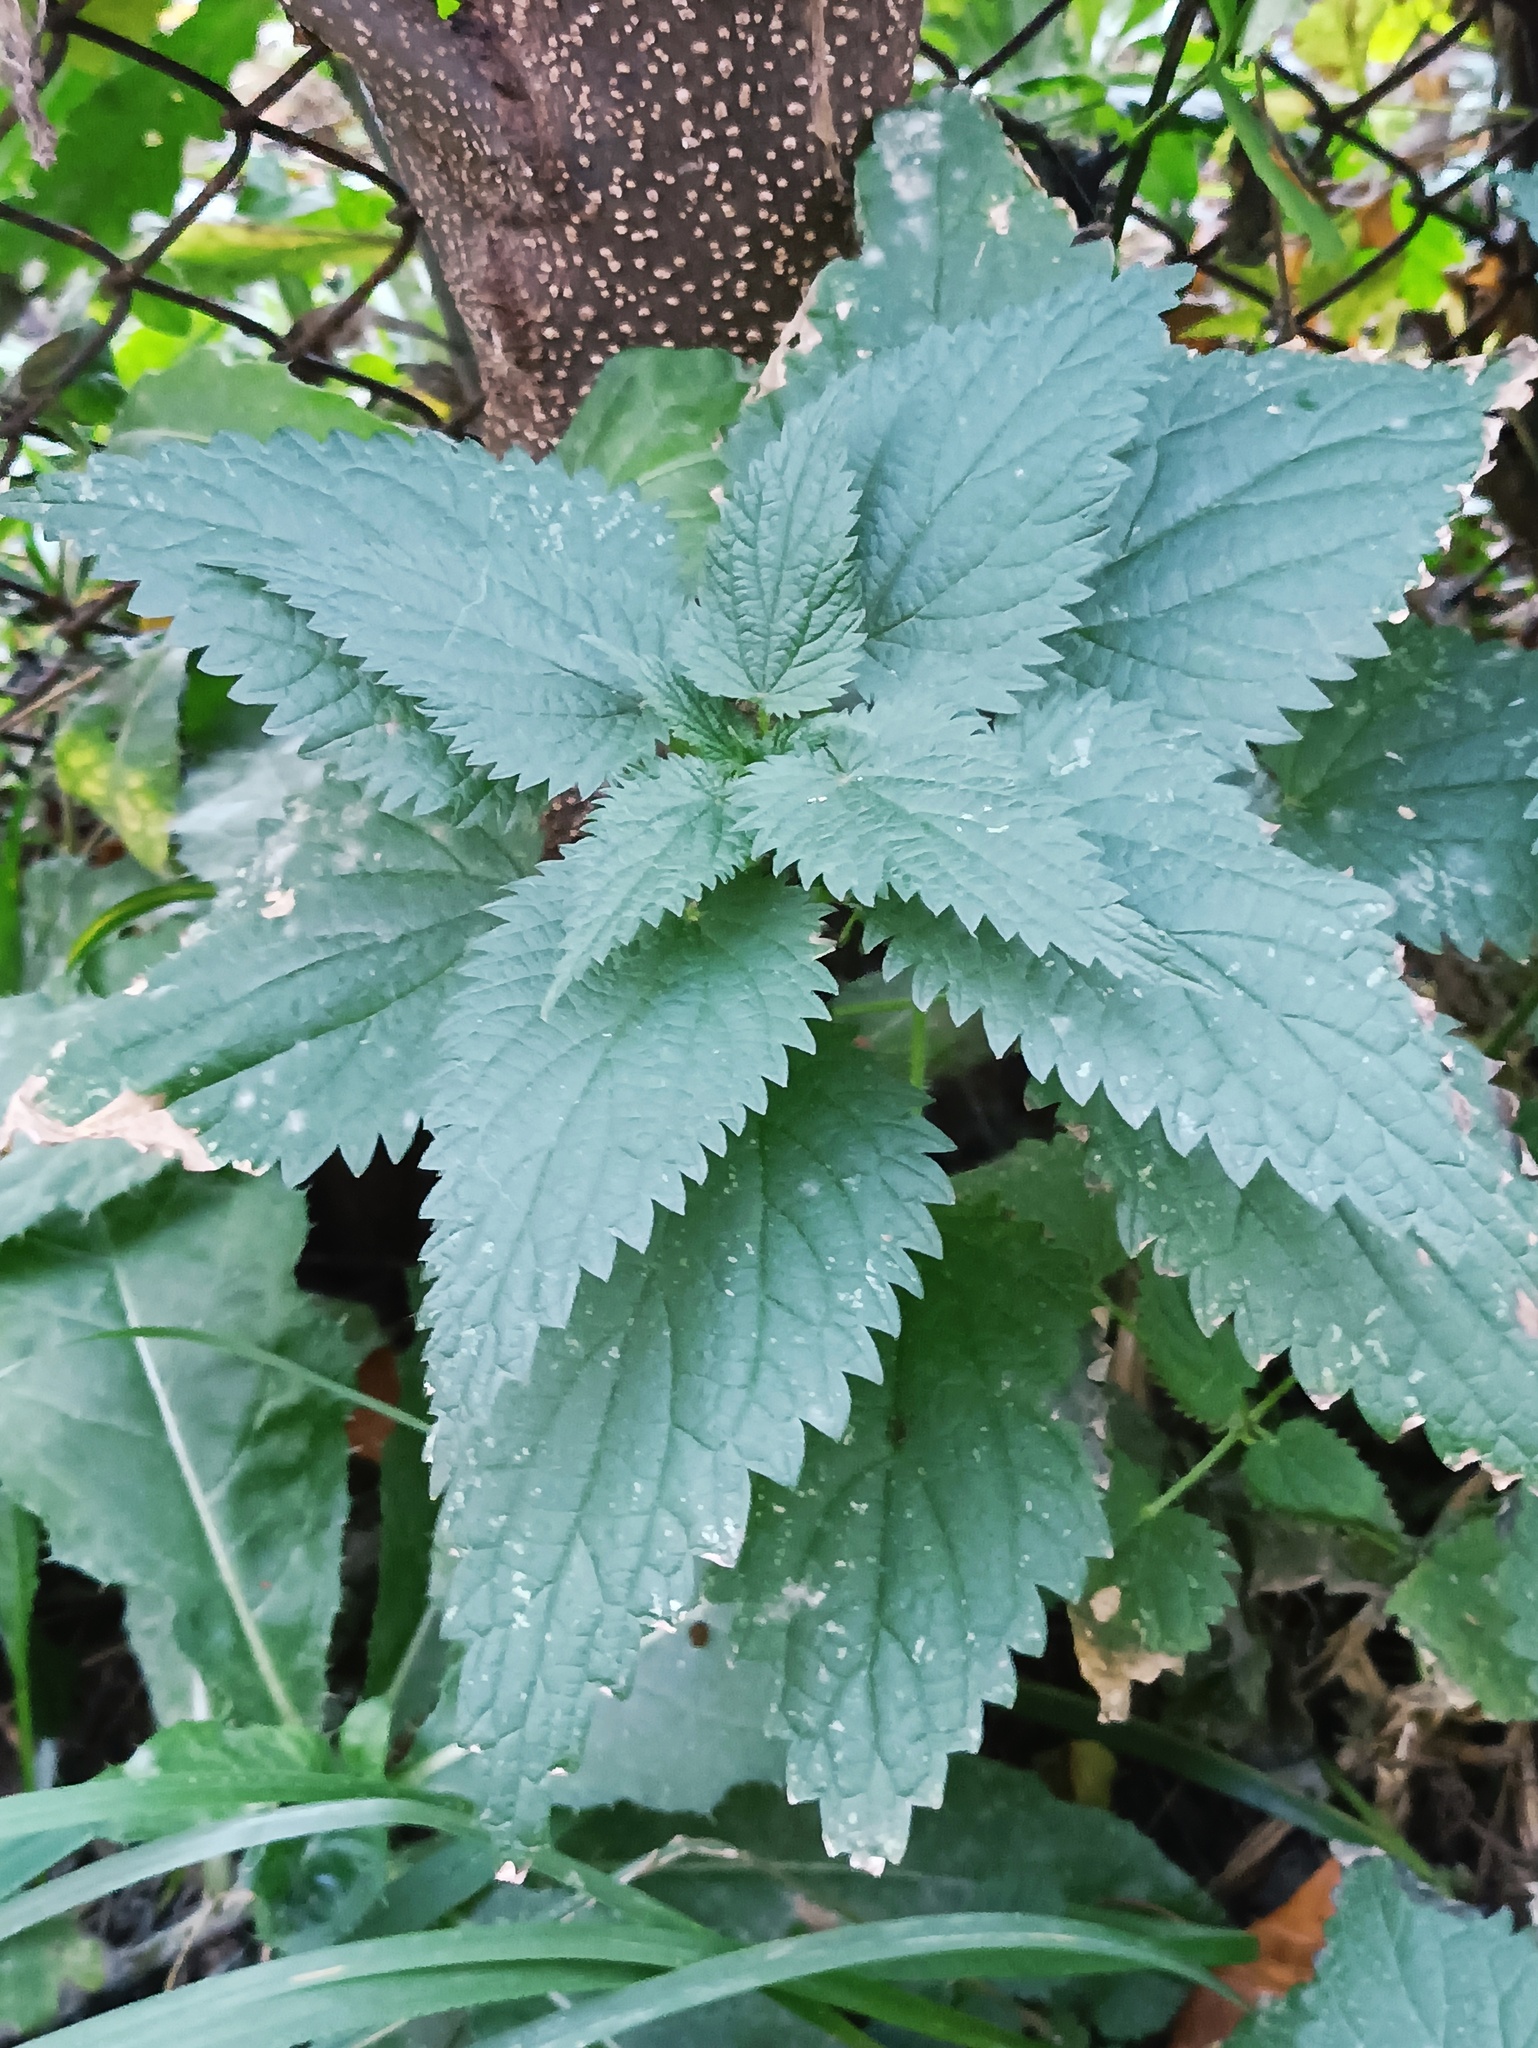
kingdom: Plantae
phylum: Tracheophyta
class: Magnoliopsida
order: Rosales
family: Urticaceae
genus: Urtica
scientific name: Urtica dioica
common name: Common nettle
